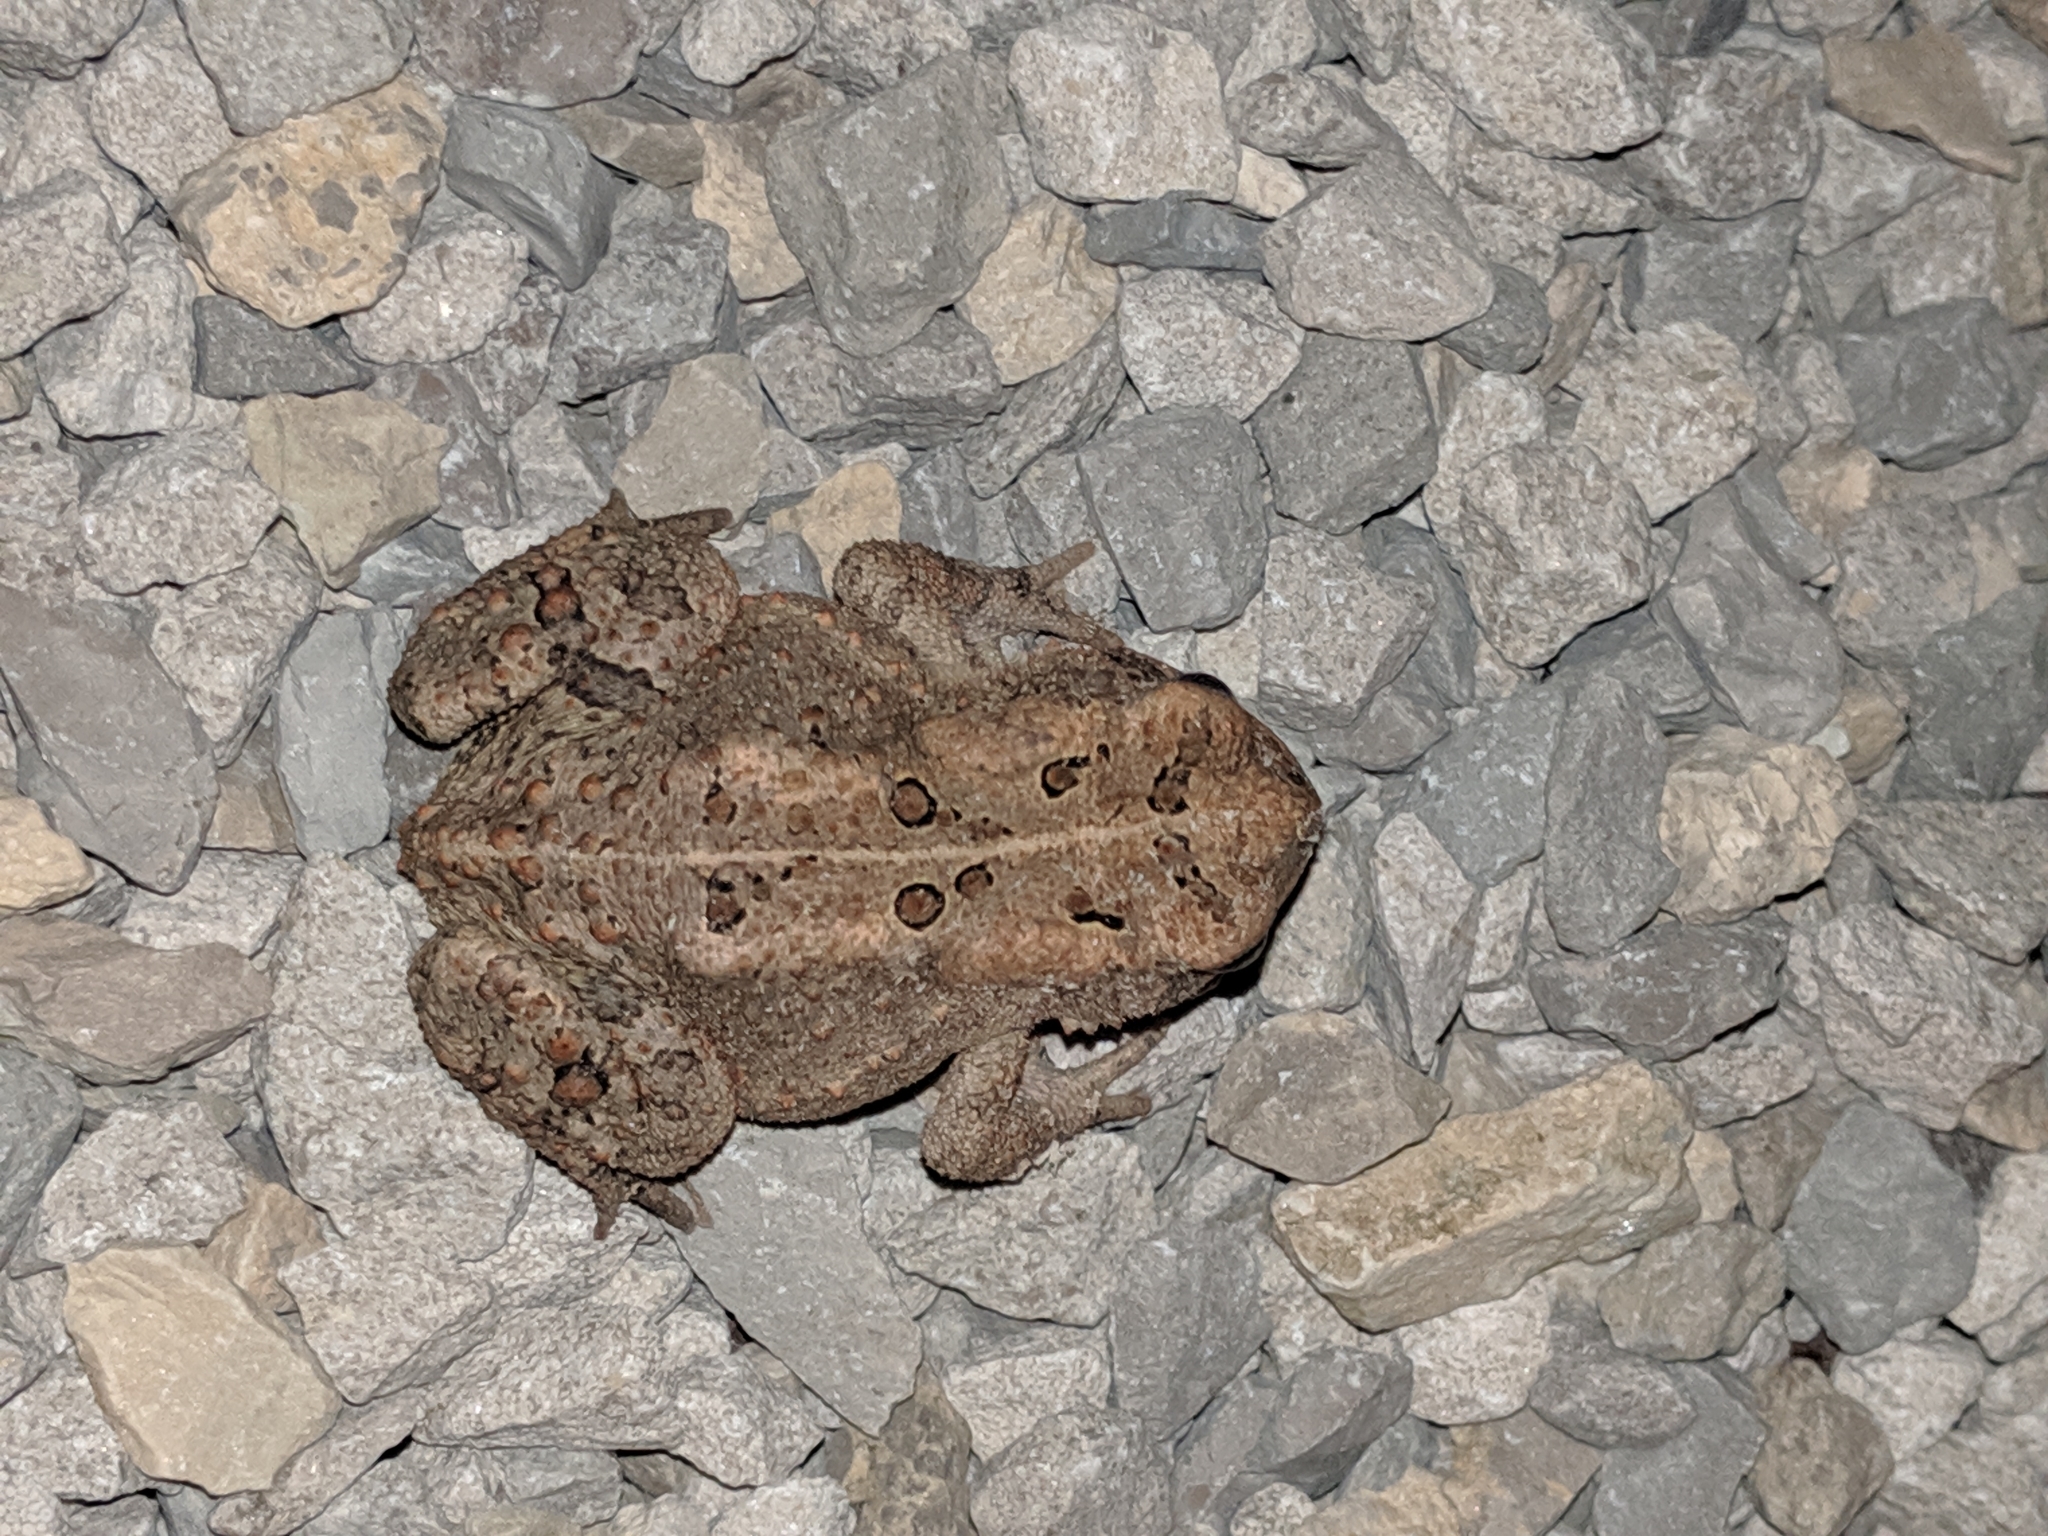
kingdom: Animalia
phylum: Chordata
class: Amphibia
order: Anura
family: Bufonidae
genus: Anaxyrus
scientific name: Anaxyrus americanus
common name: American toad
